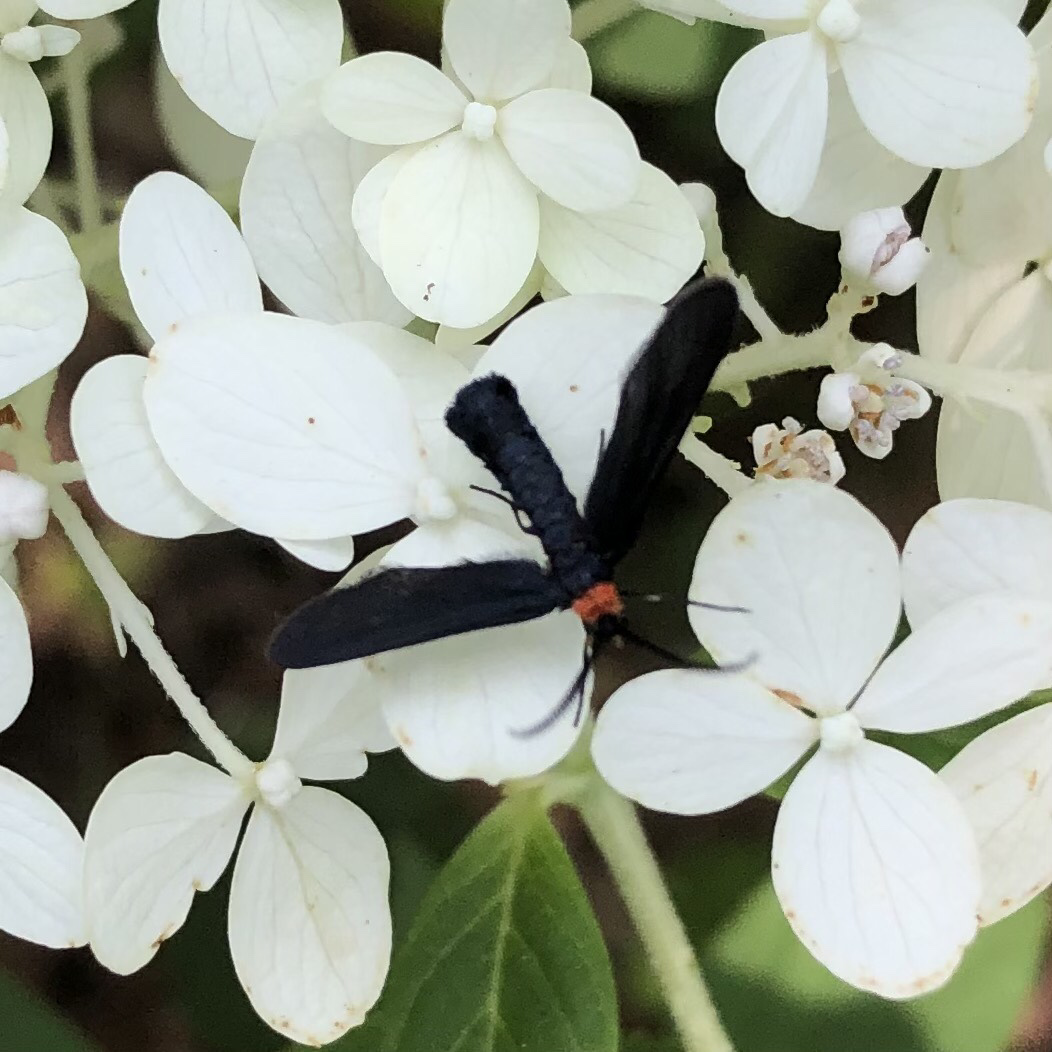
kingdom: Animalia
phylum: Arthropoda
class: Insecta
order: Lepidoptera
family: Zygaenidae
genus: Harrisina
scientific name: Harrisina americana
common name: Grapeleaf skeletonizer moth
